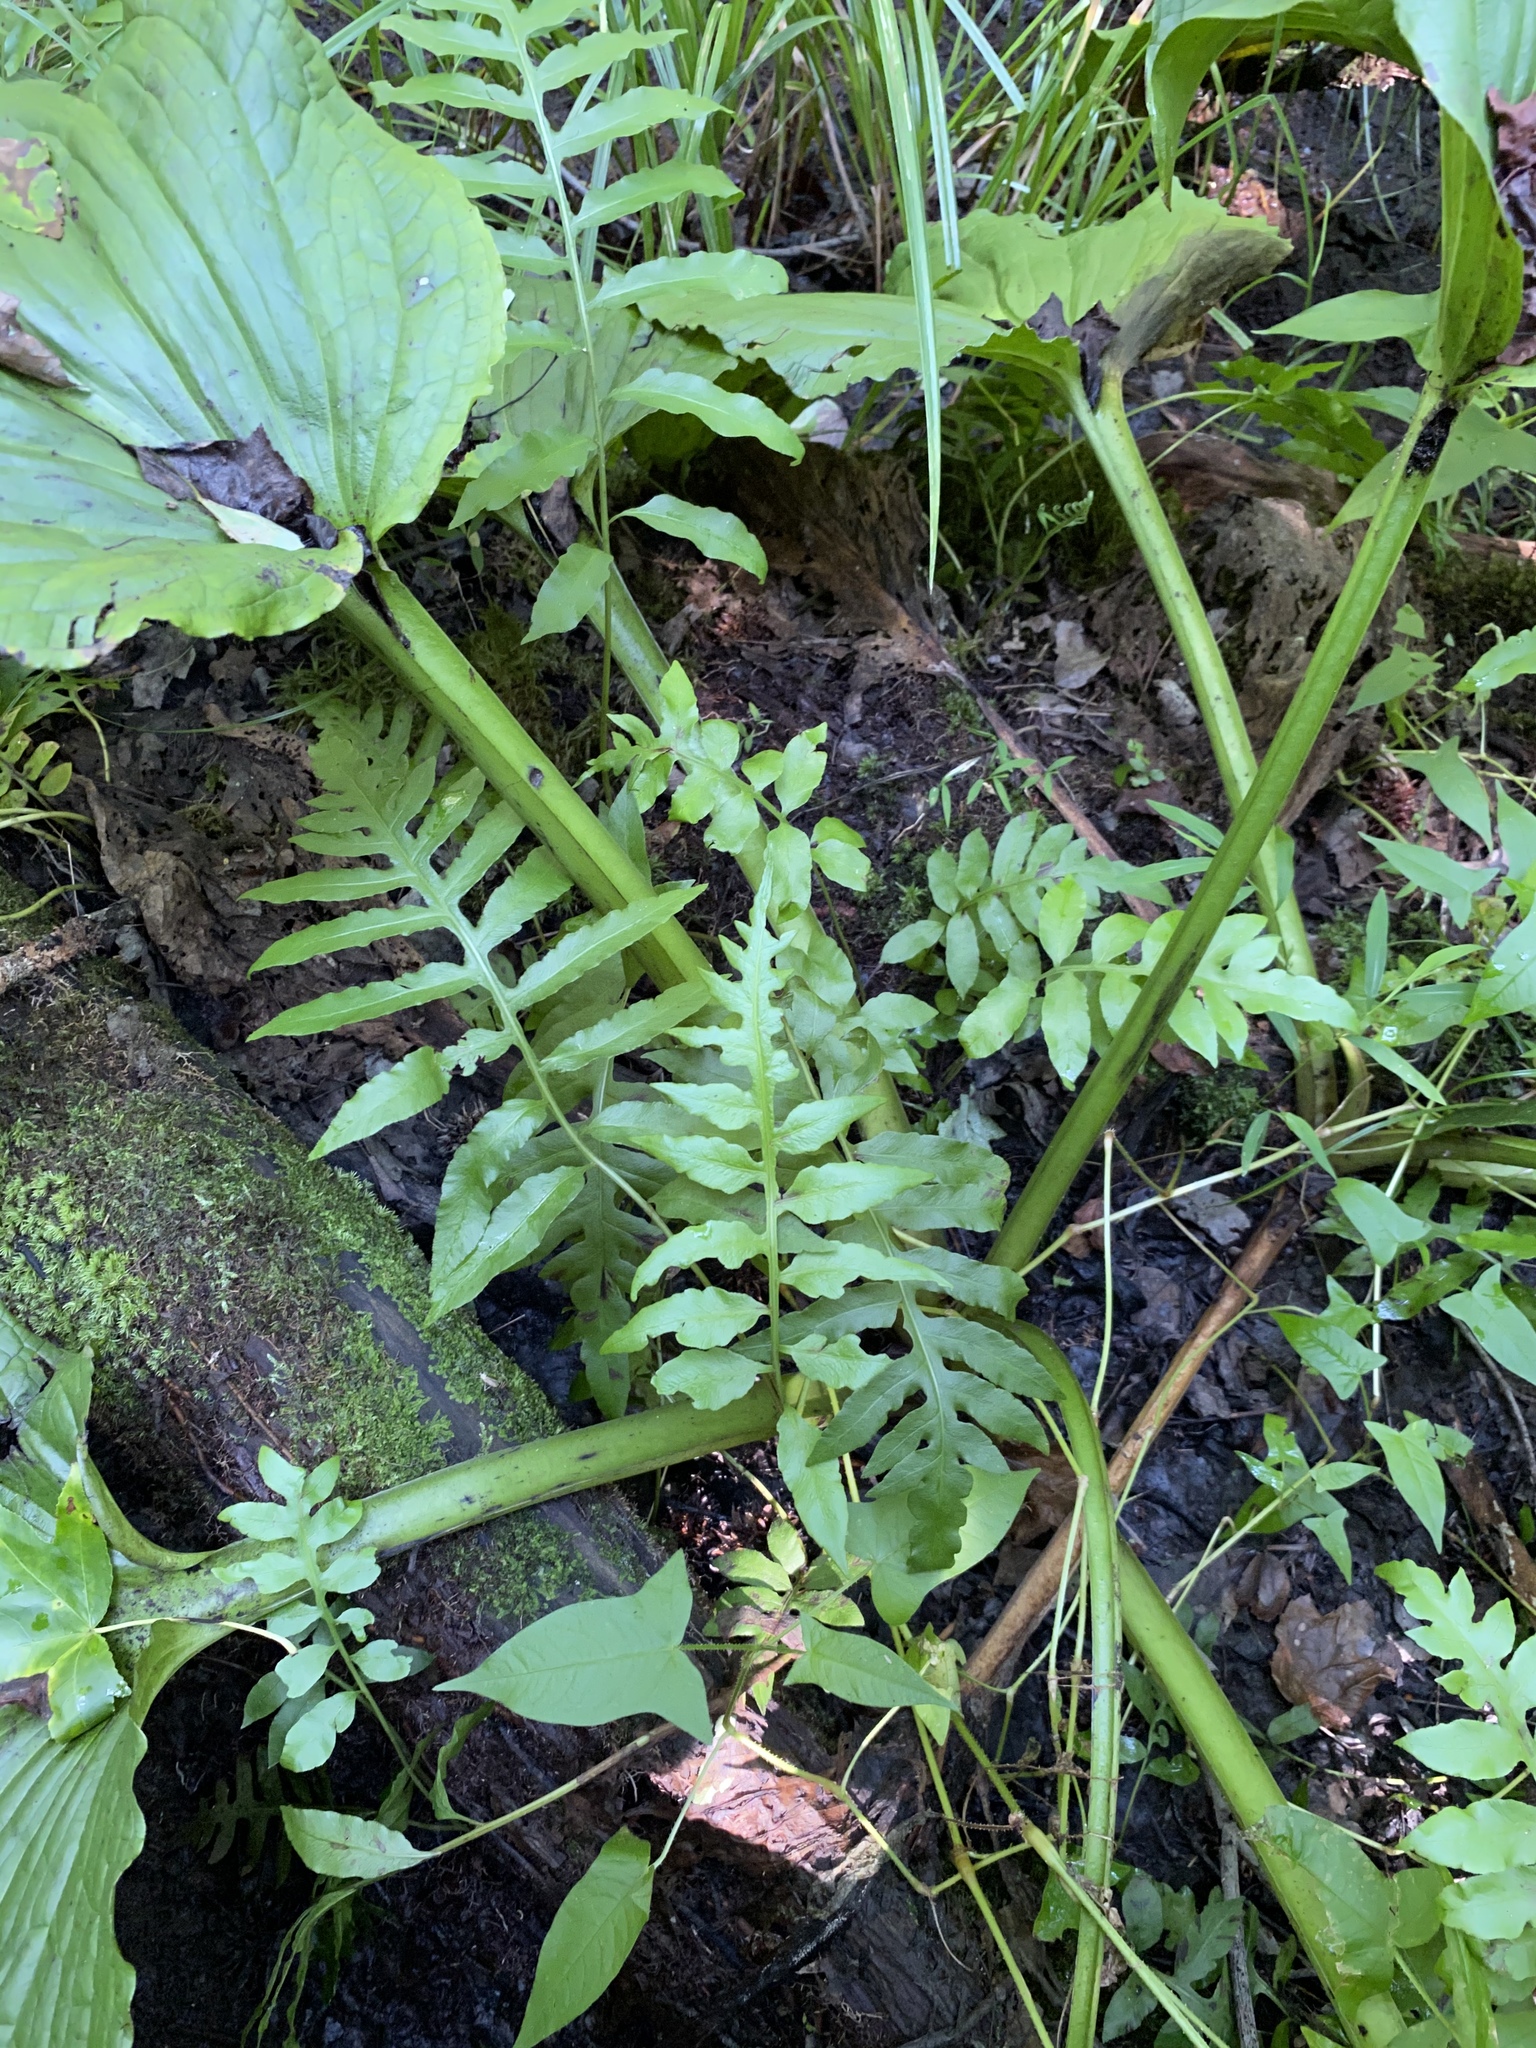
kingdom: Plantae
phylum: Tracheophyta
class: Polypodiopsida
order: Polypodiales
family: Blechnaceae
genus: Lorinseria
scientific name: Lorinseria areolata
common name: Dwarf chain fern
